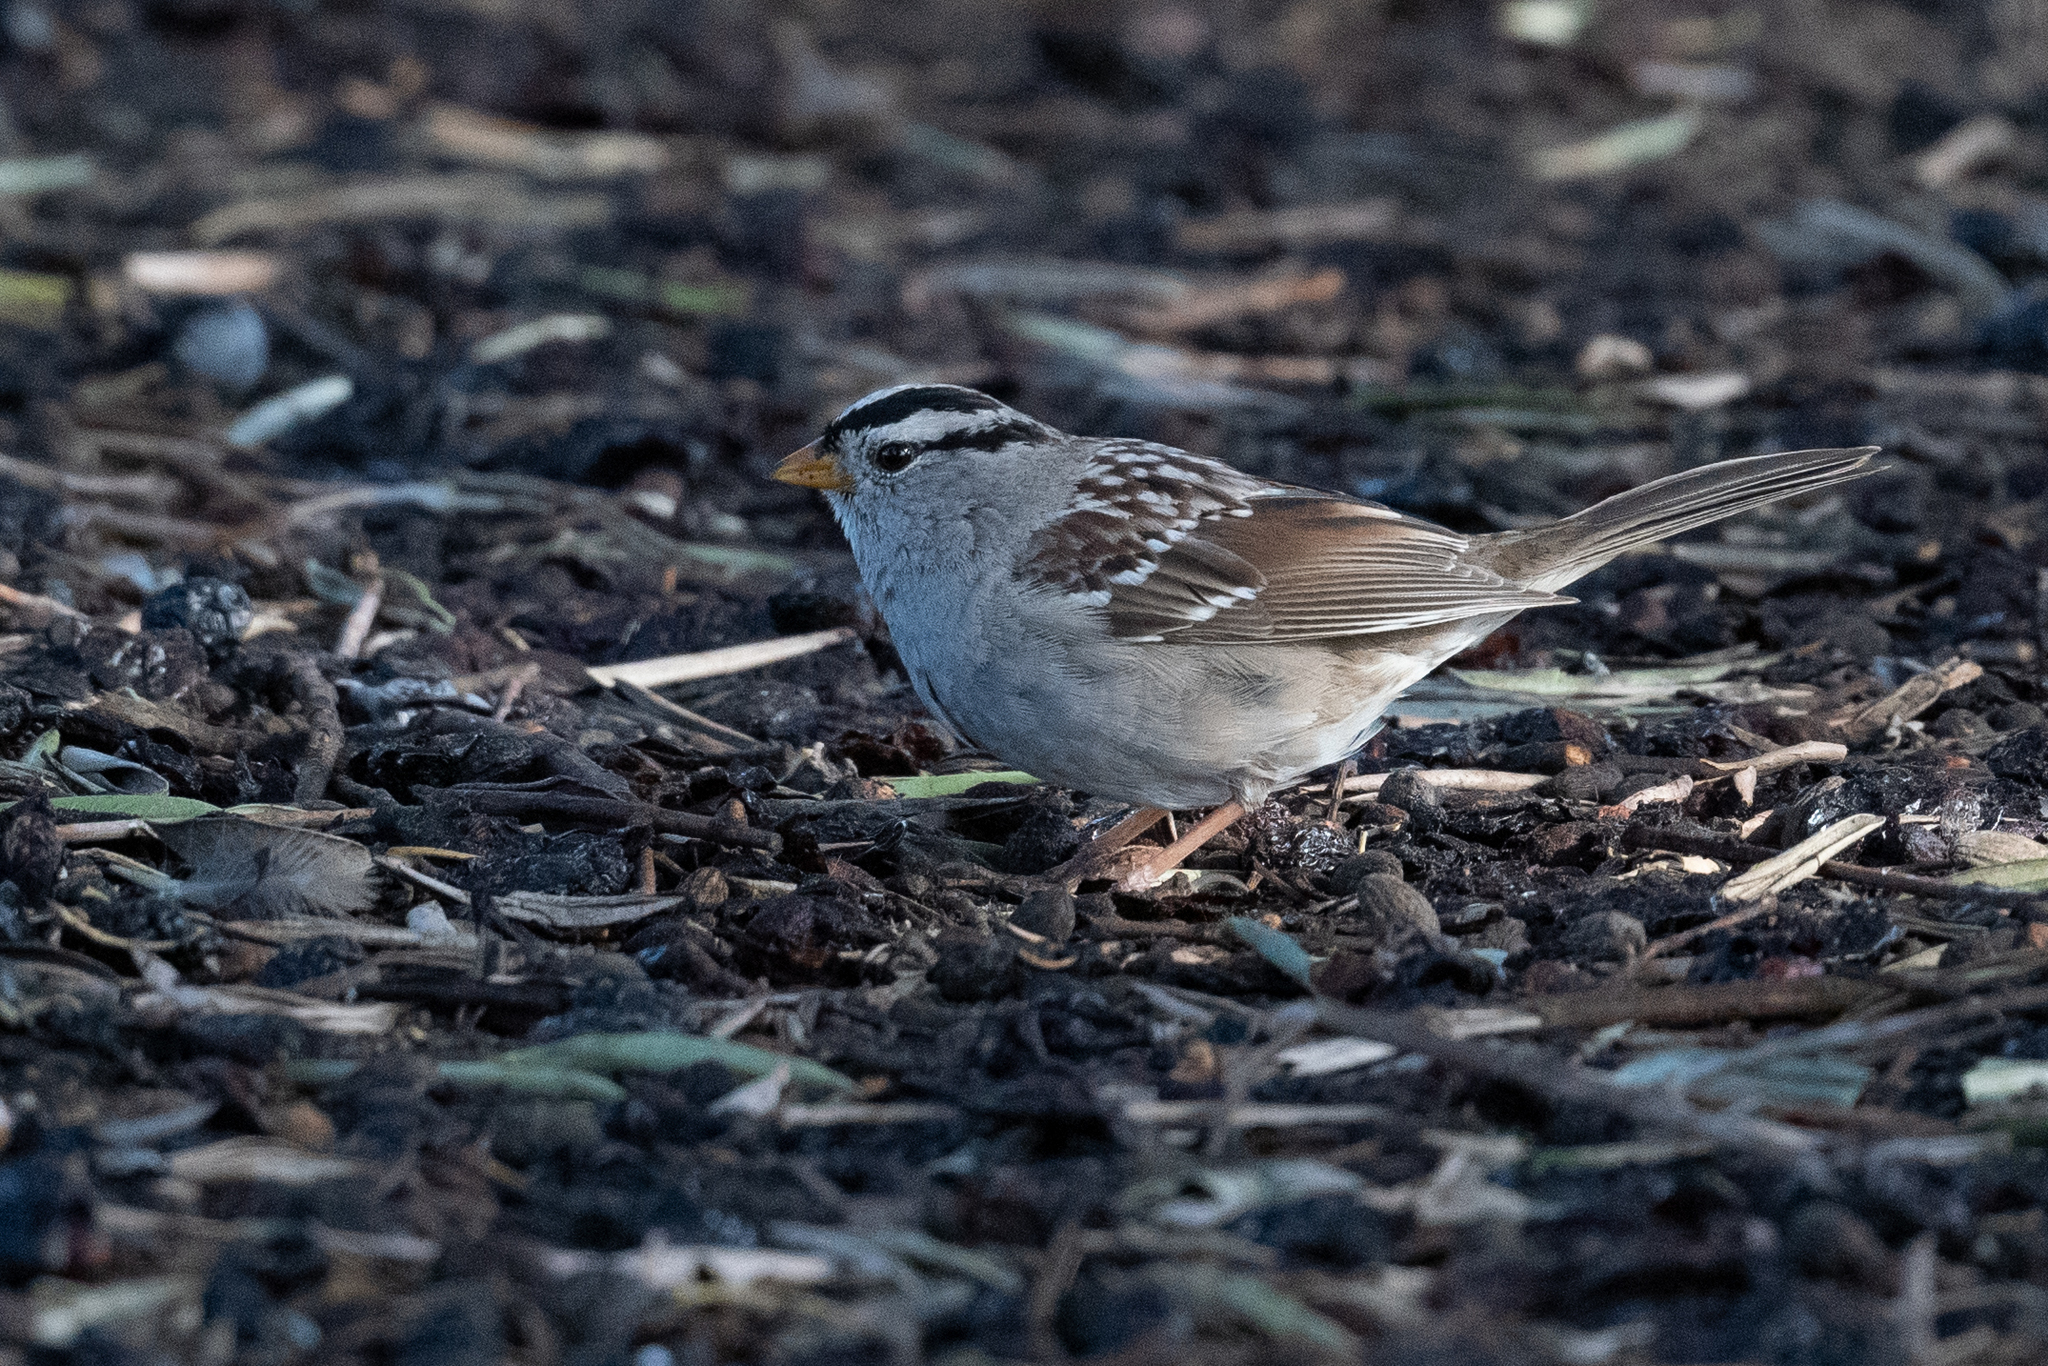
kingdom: Animalia
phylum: Chordata
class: Aves
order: Passeriformes
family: Passerellidae
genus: Zonotrichia
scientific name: Zonotrichia leucophrys
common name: White-crowned sparrow
